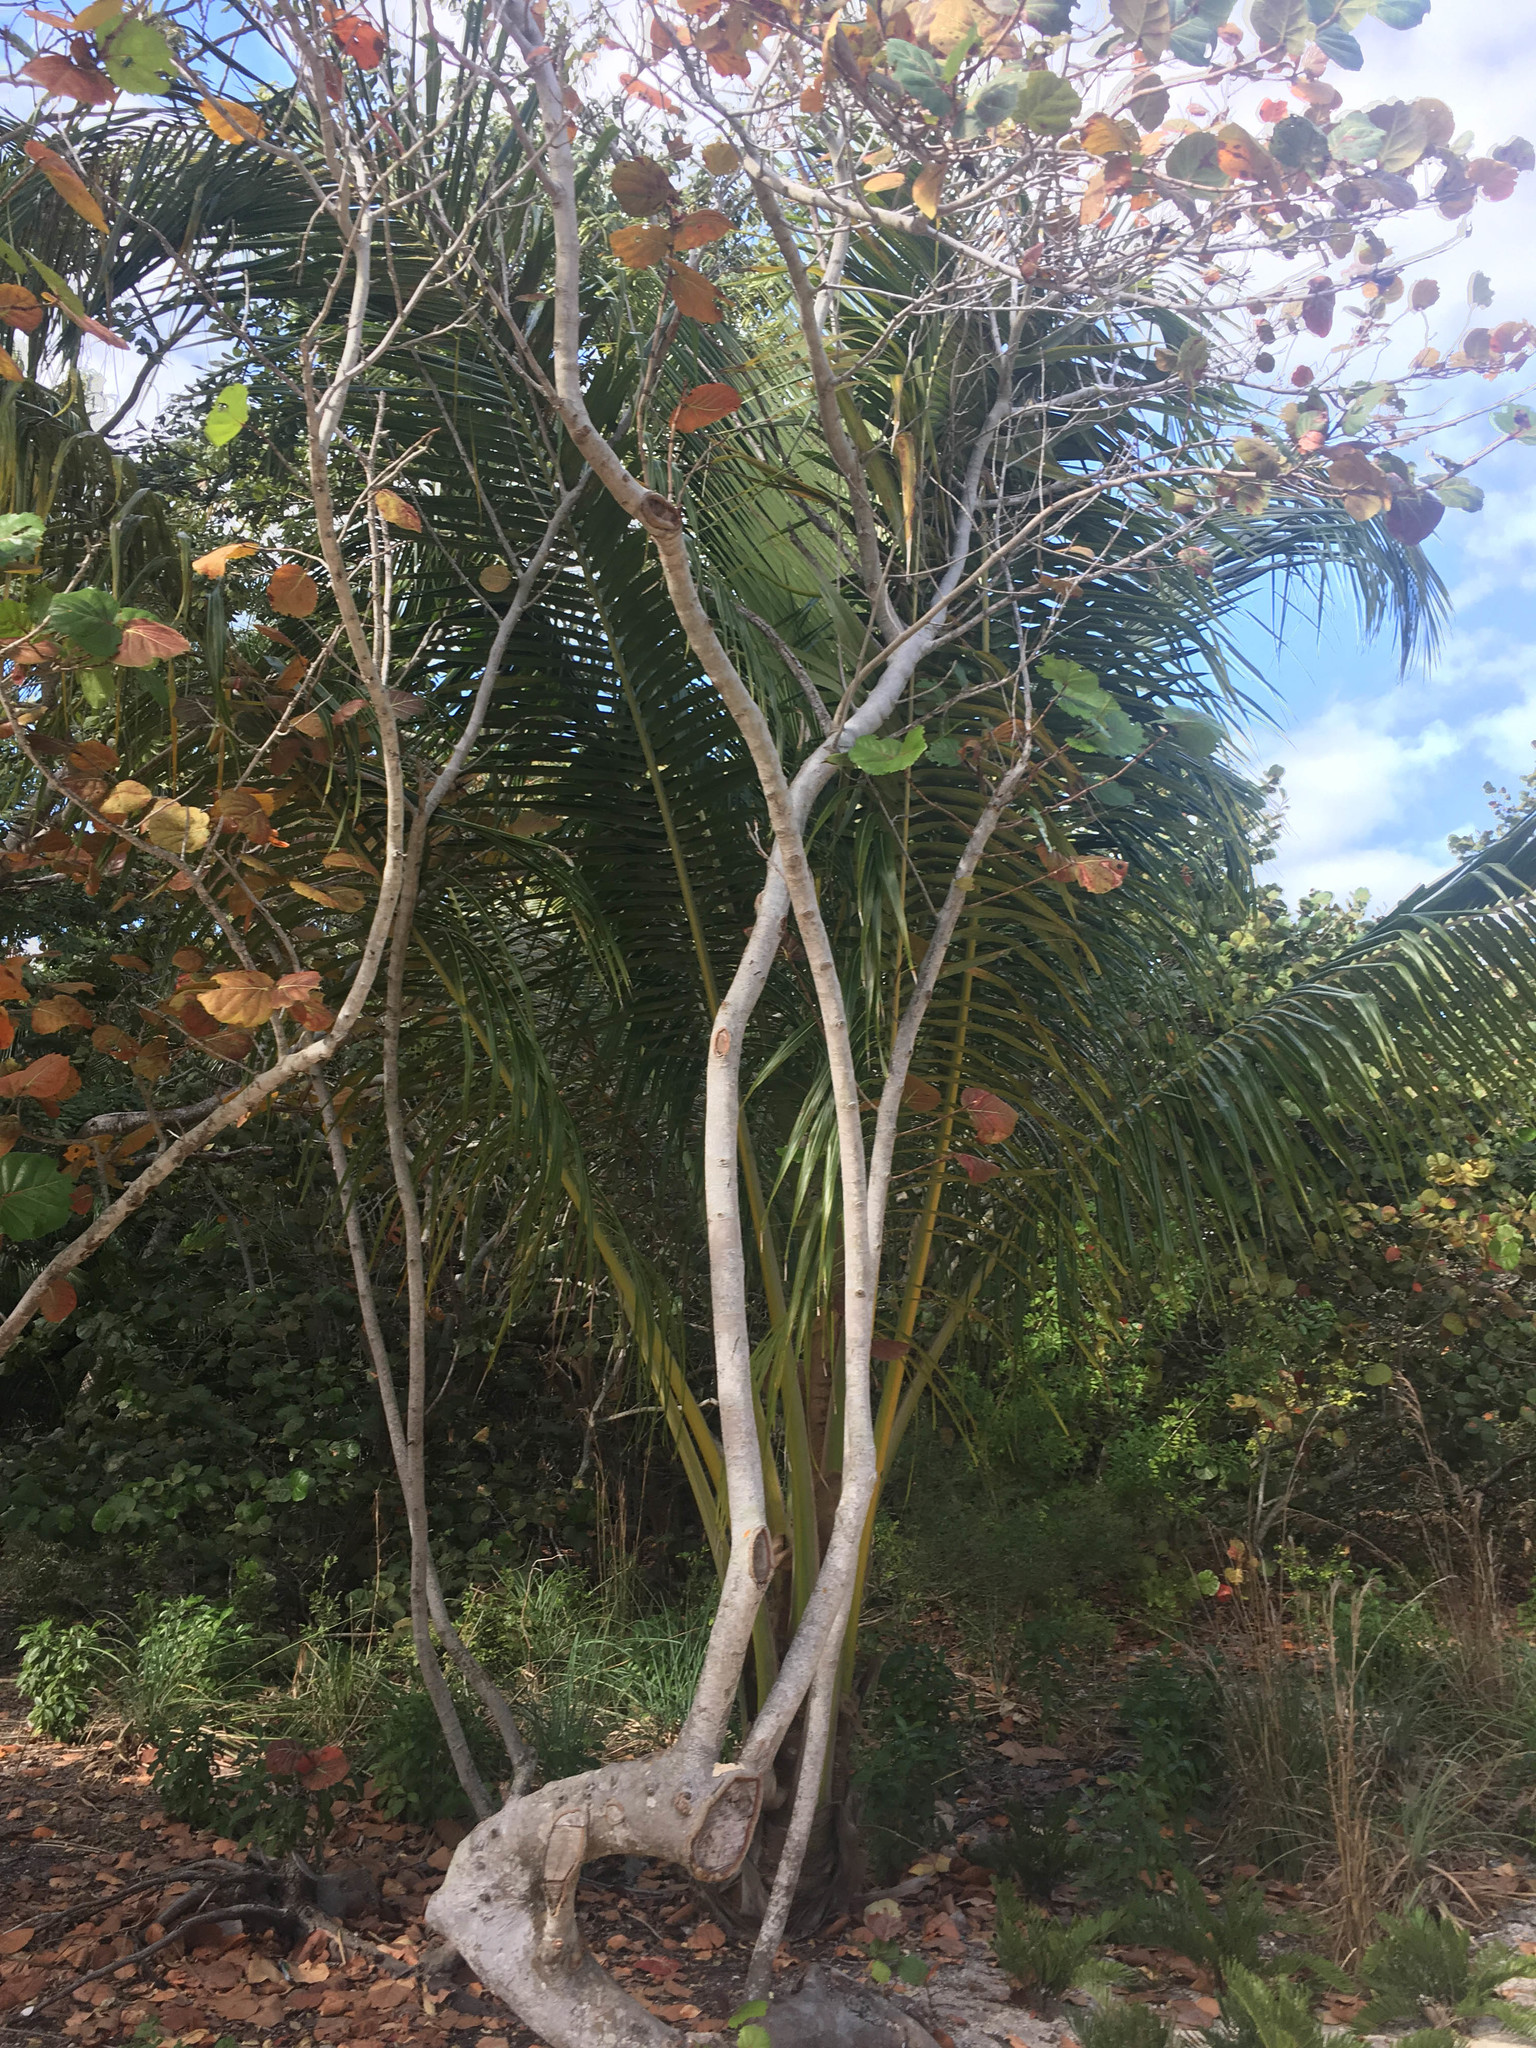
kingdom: Plantae
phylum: Tracheophyta
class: Liliopsida
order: Arecales
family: Arecaceae
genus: Cocos
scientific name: Cocos nucifera
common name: Coconut palm
